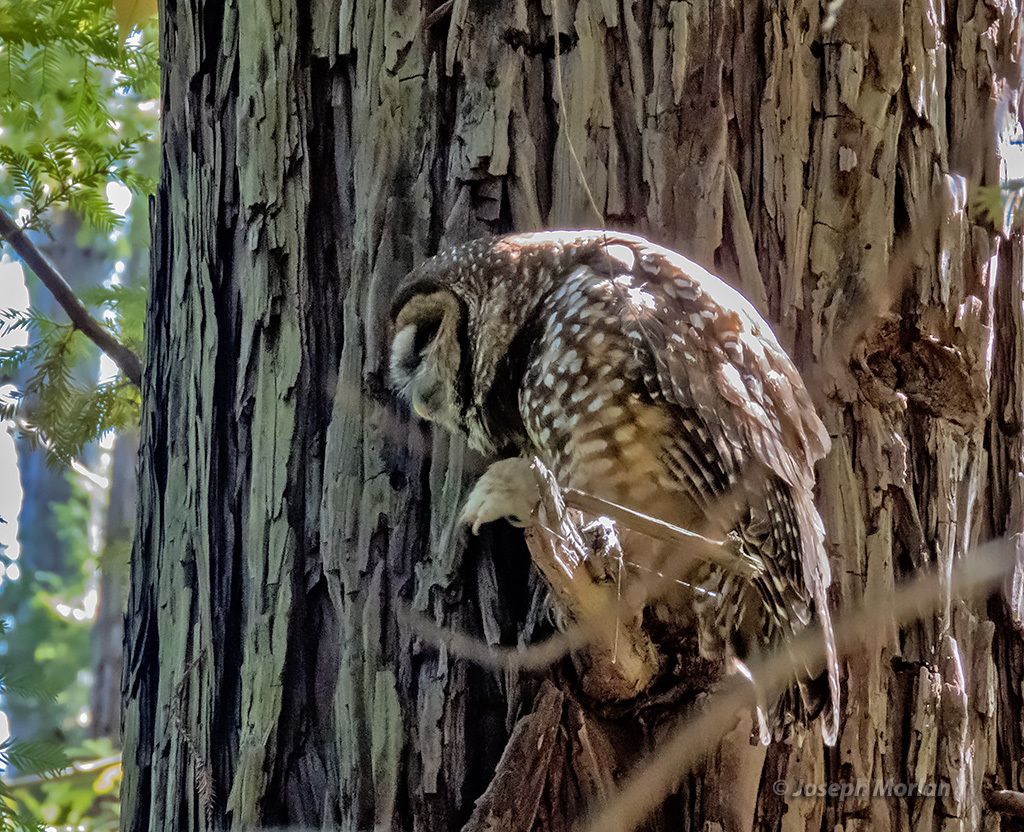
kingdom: Animalia
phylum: Chordata
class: Aves
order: Strigiformes
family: Strigidae
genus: Strix
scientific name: Strix occidentalis
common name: Spotted owl
